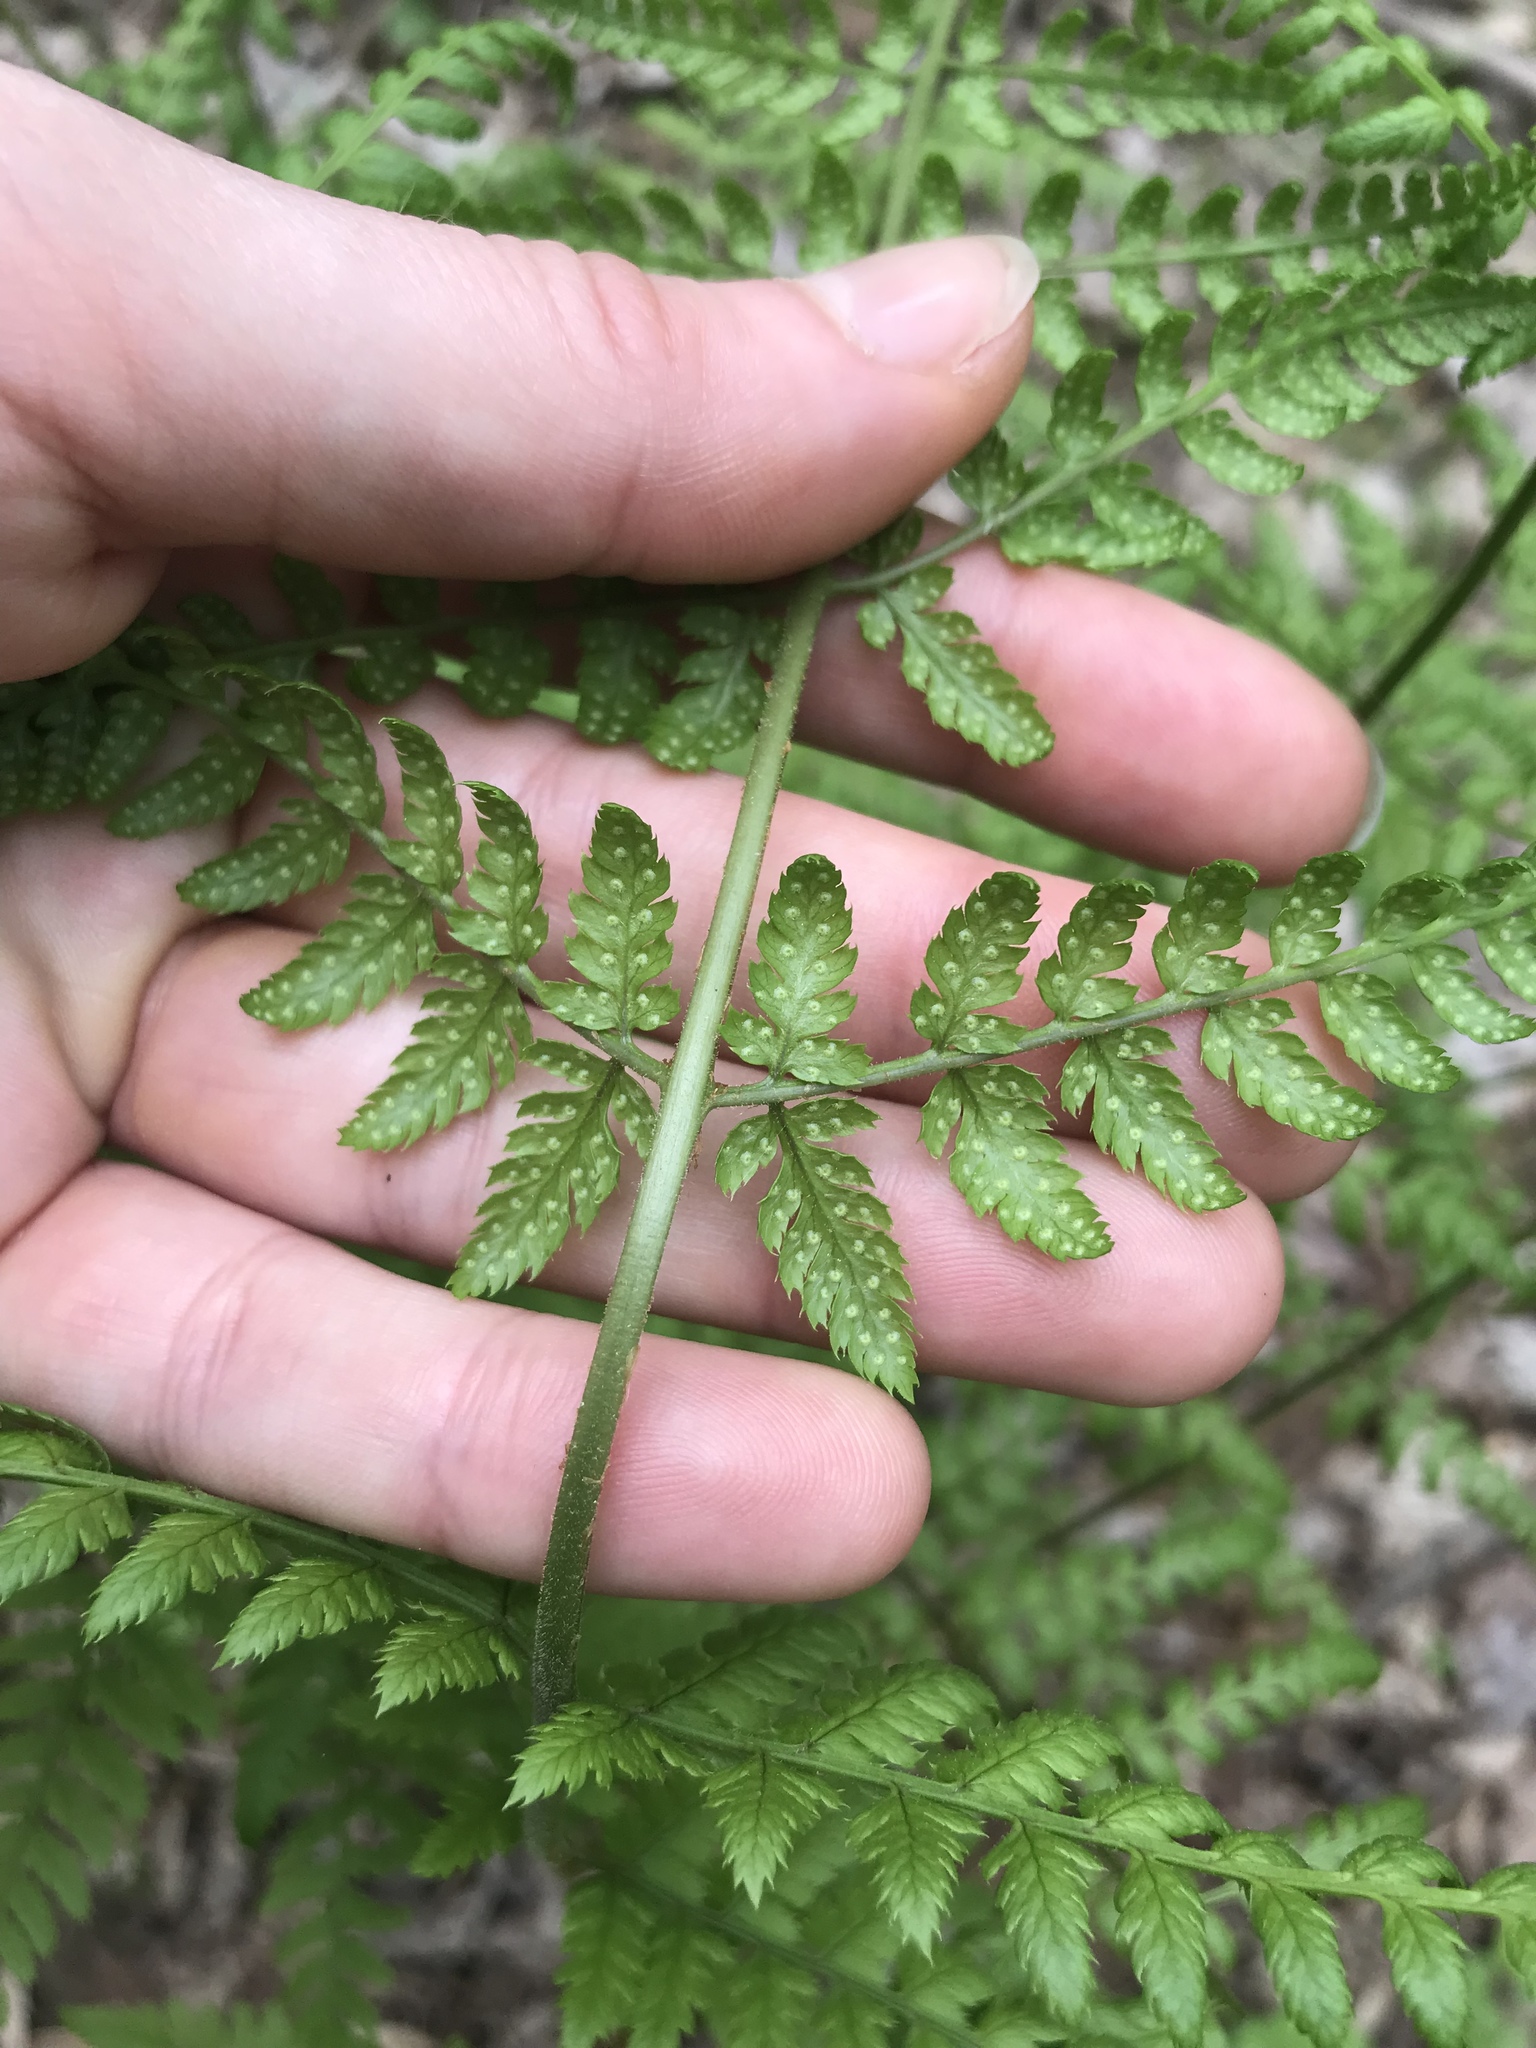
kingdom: Plantae
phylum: Tracheophyta
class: Polypodiopsida
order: Polypodiales
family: Dryopteridaceae
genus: Dryopteris
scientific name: Dryopteris intermedia
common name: Evergreen wood fern
